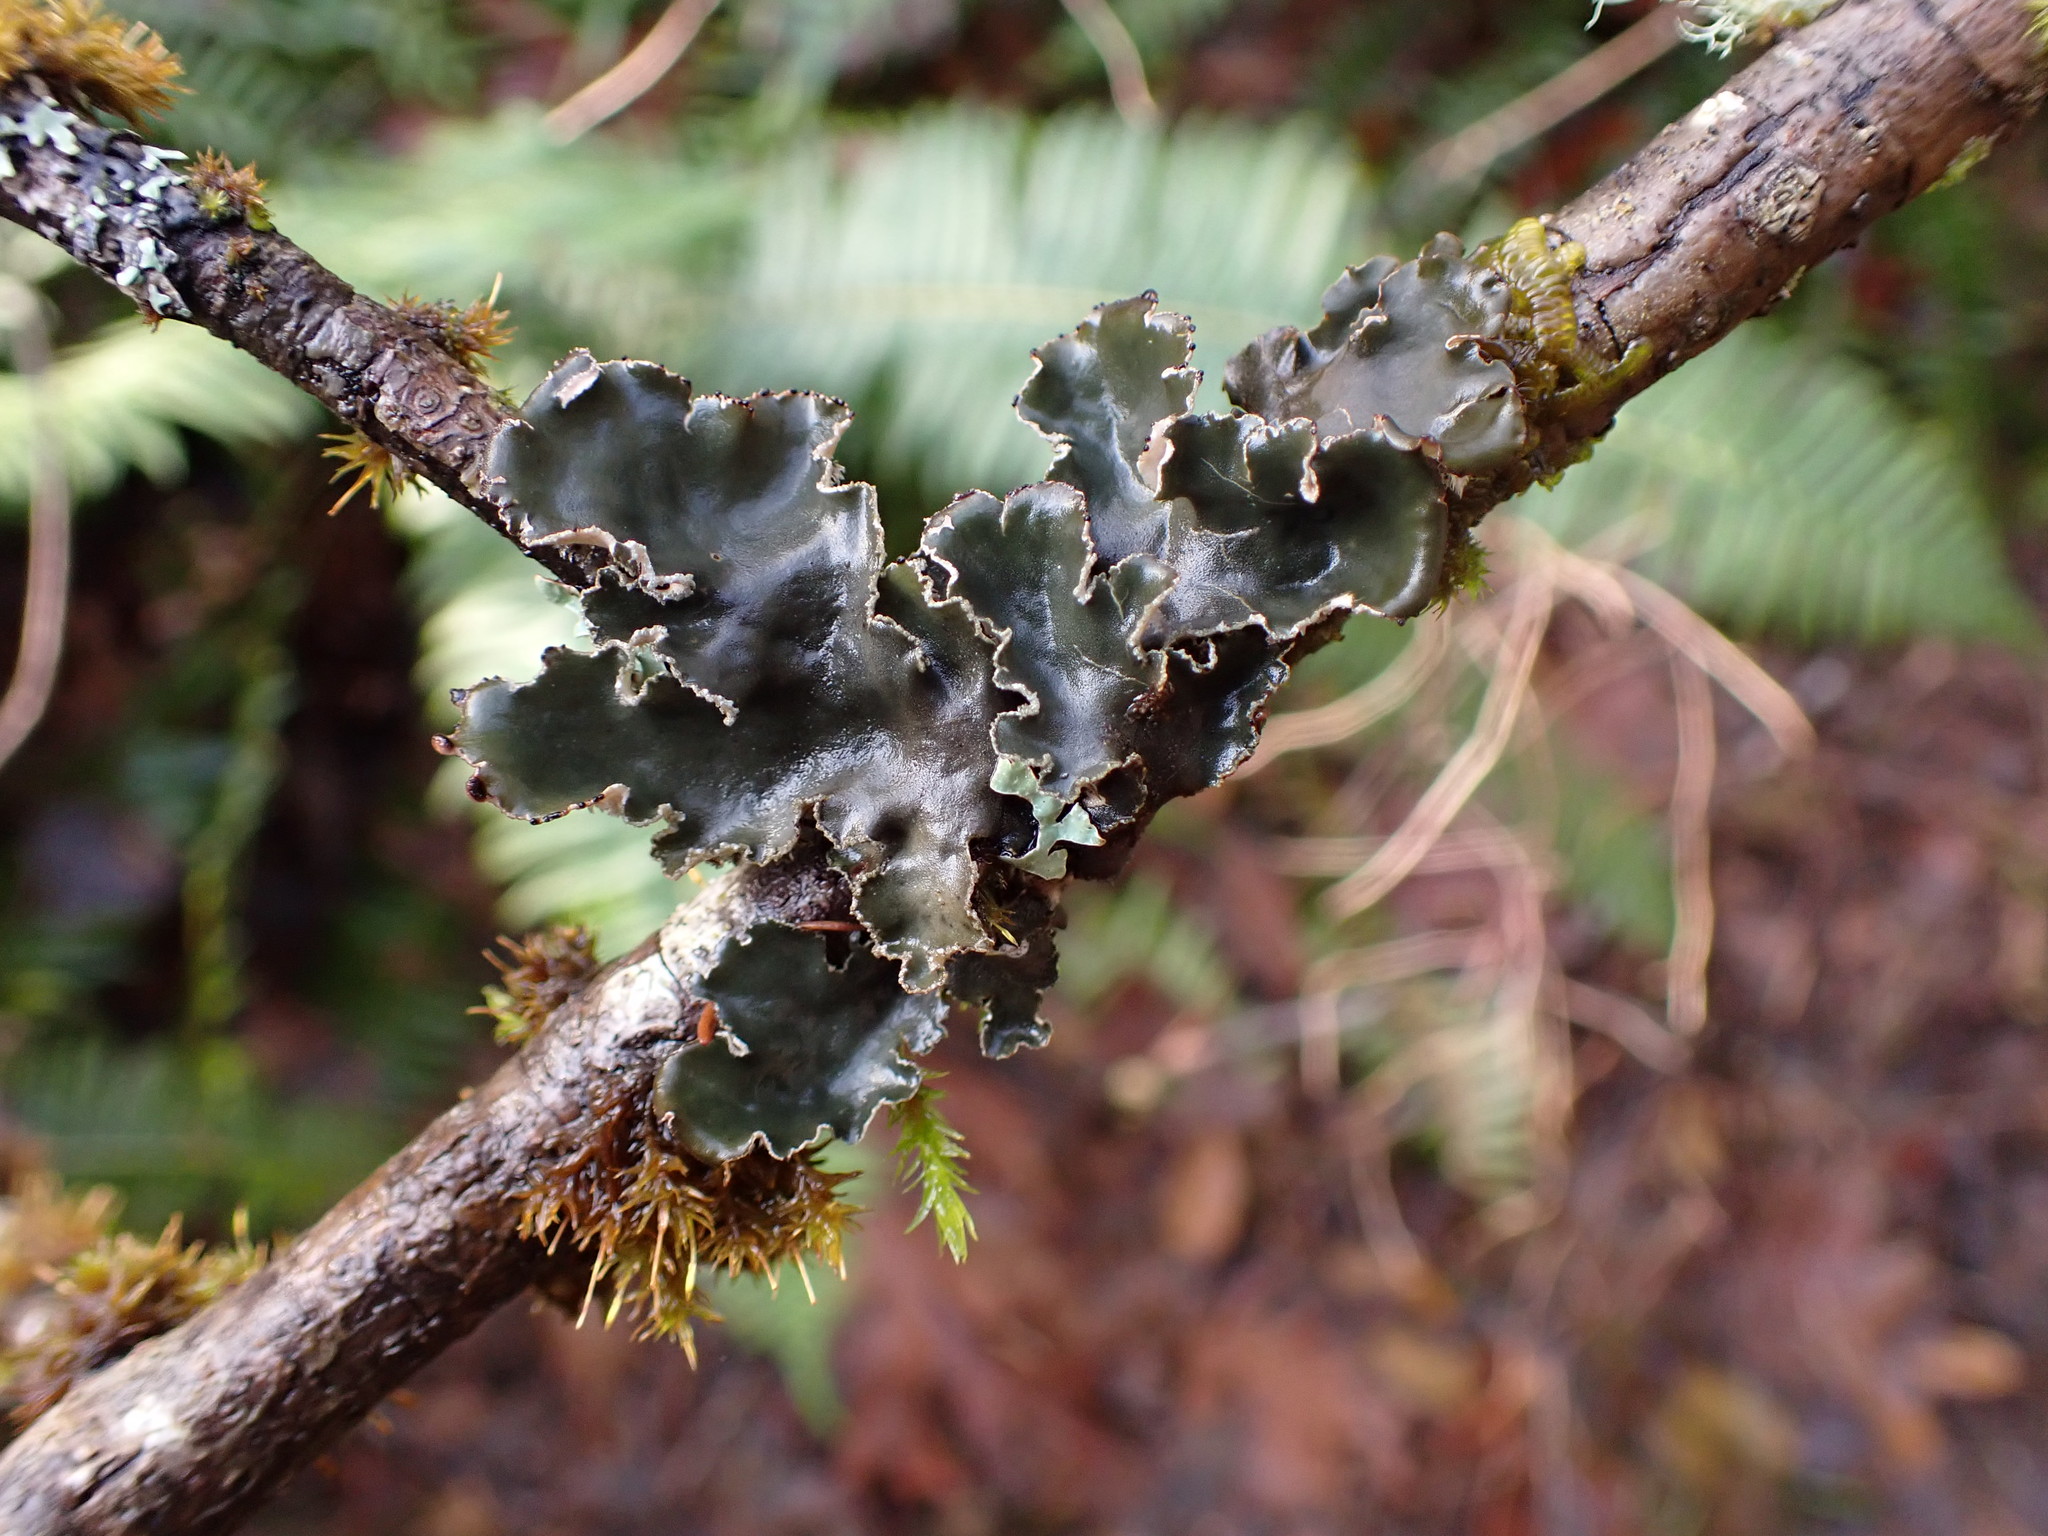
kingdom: Fungi
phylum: Ascomycota
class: Lecanoromycetes
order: Peltigerales
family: Peltigeraceae
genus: Peltigera
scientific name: Peltigera collina
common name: Gritty tree pelt lichen
